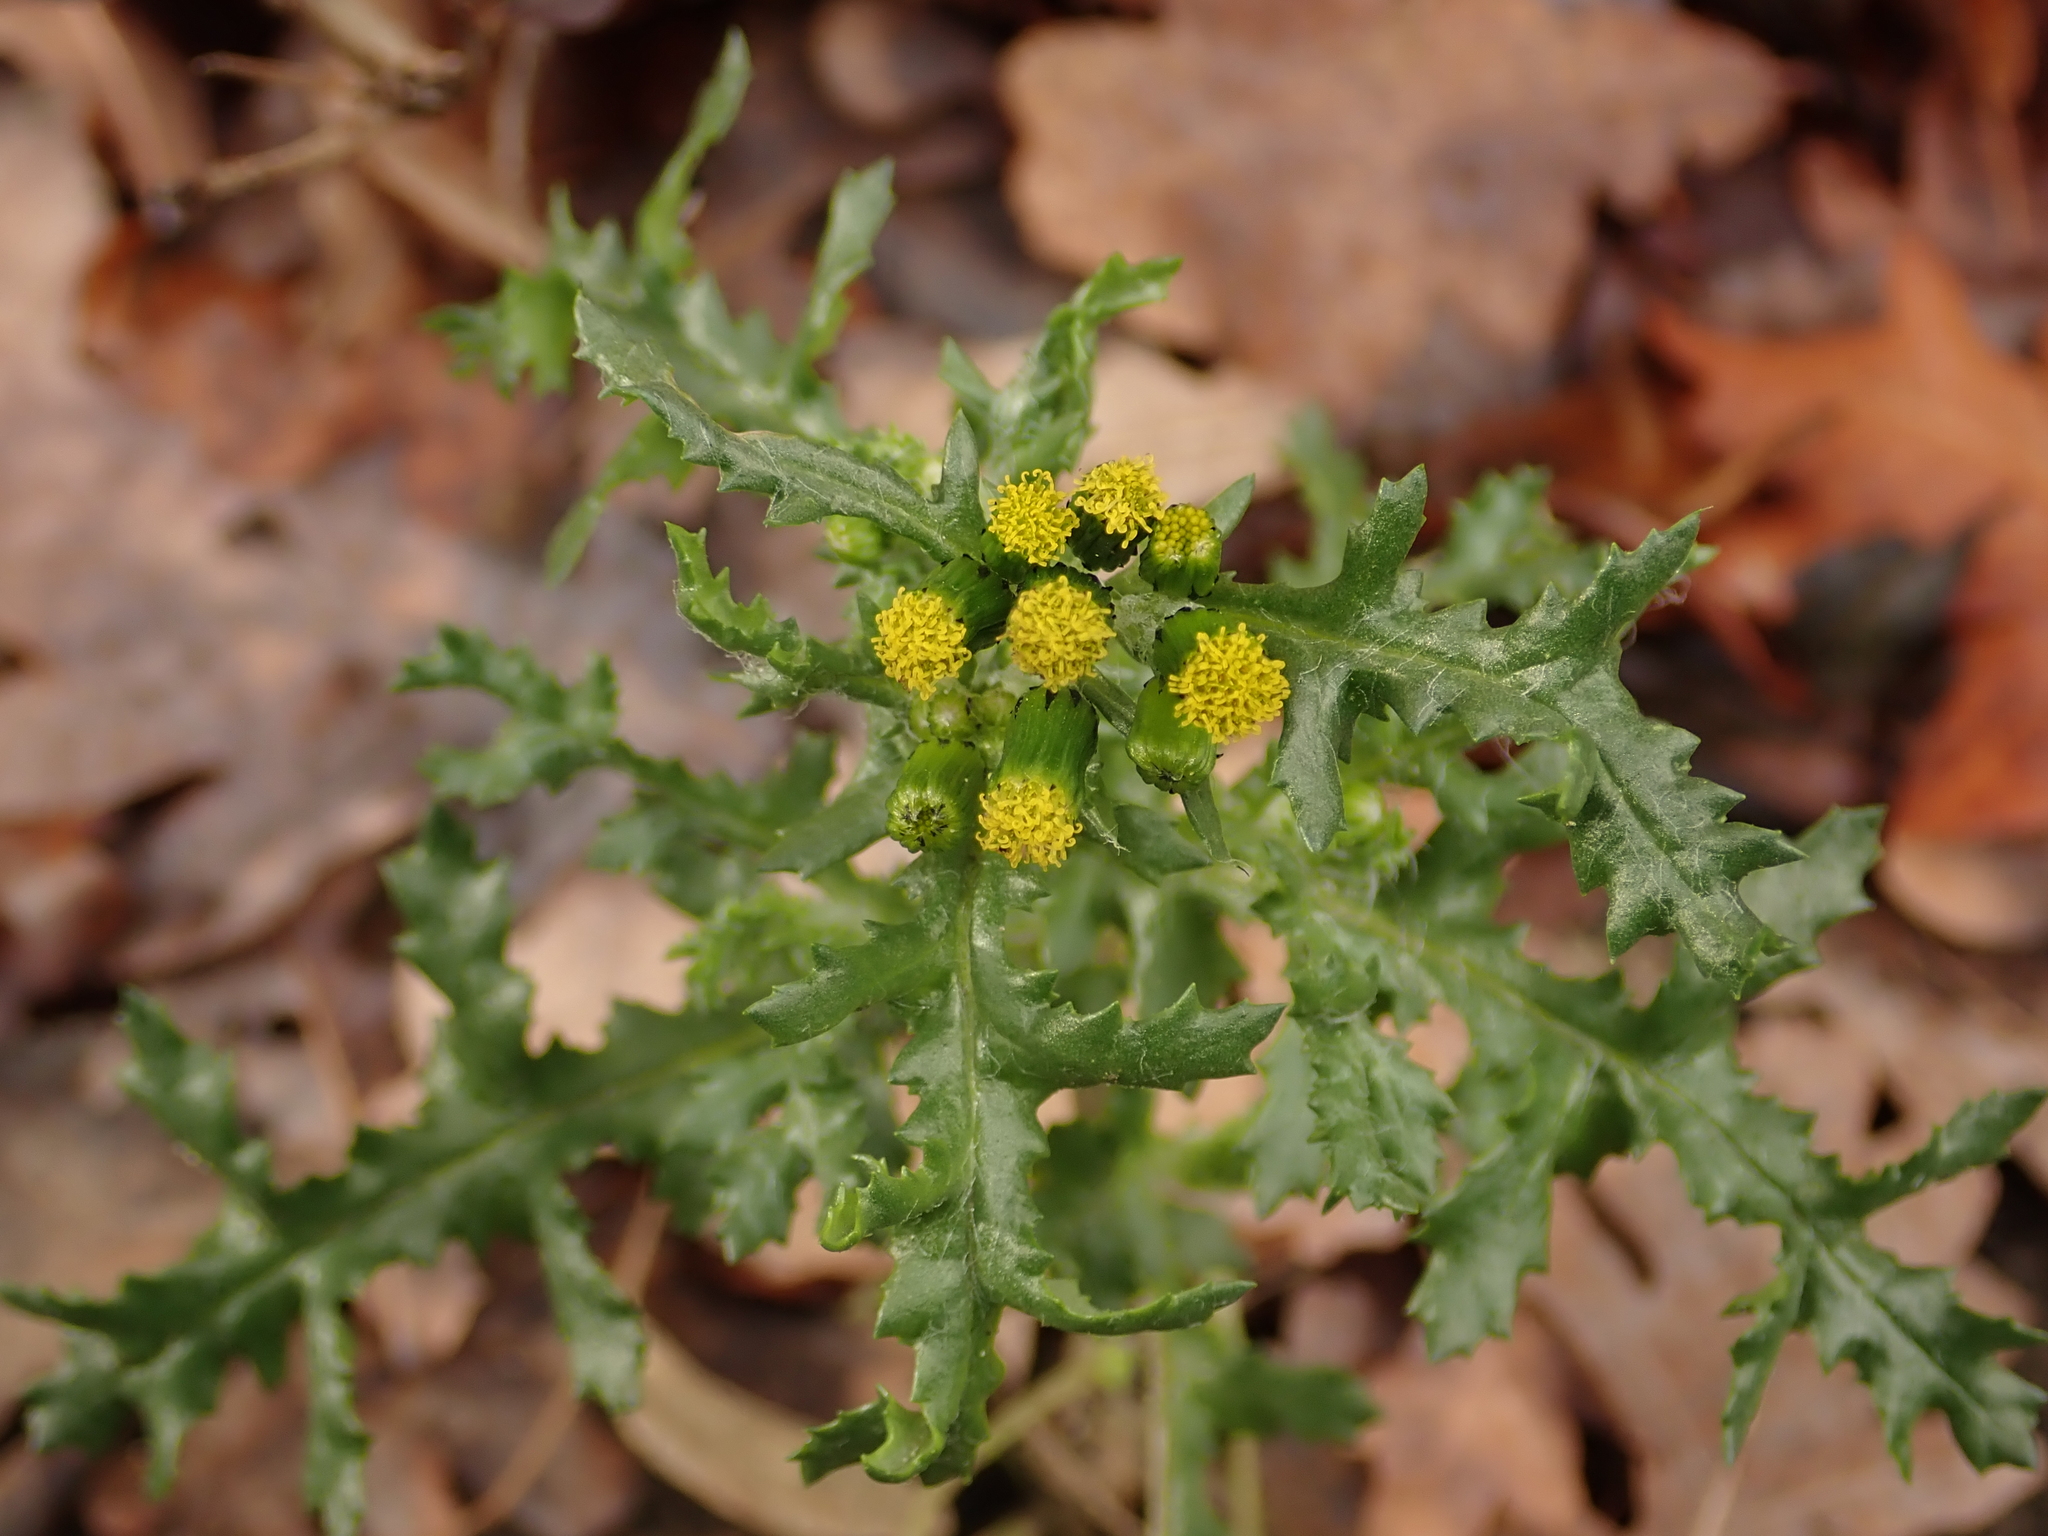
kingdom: Plantae
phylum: Tracheophyta
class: Magnoliopsida
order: Asterales
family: Asteraceae
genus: Senecio
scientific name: Senecio vulgaris
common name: Old-man-in-the-spring
